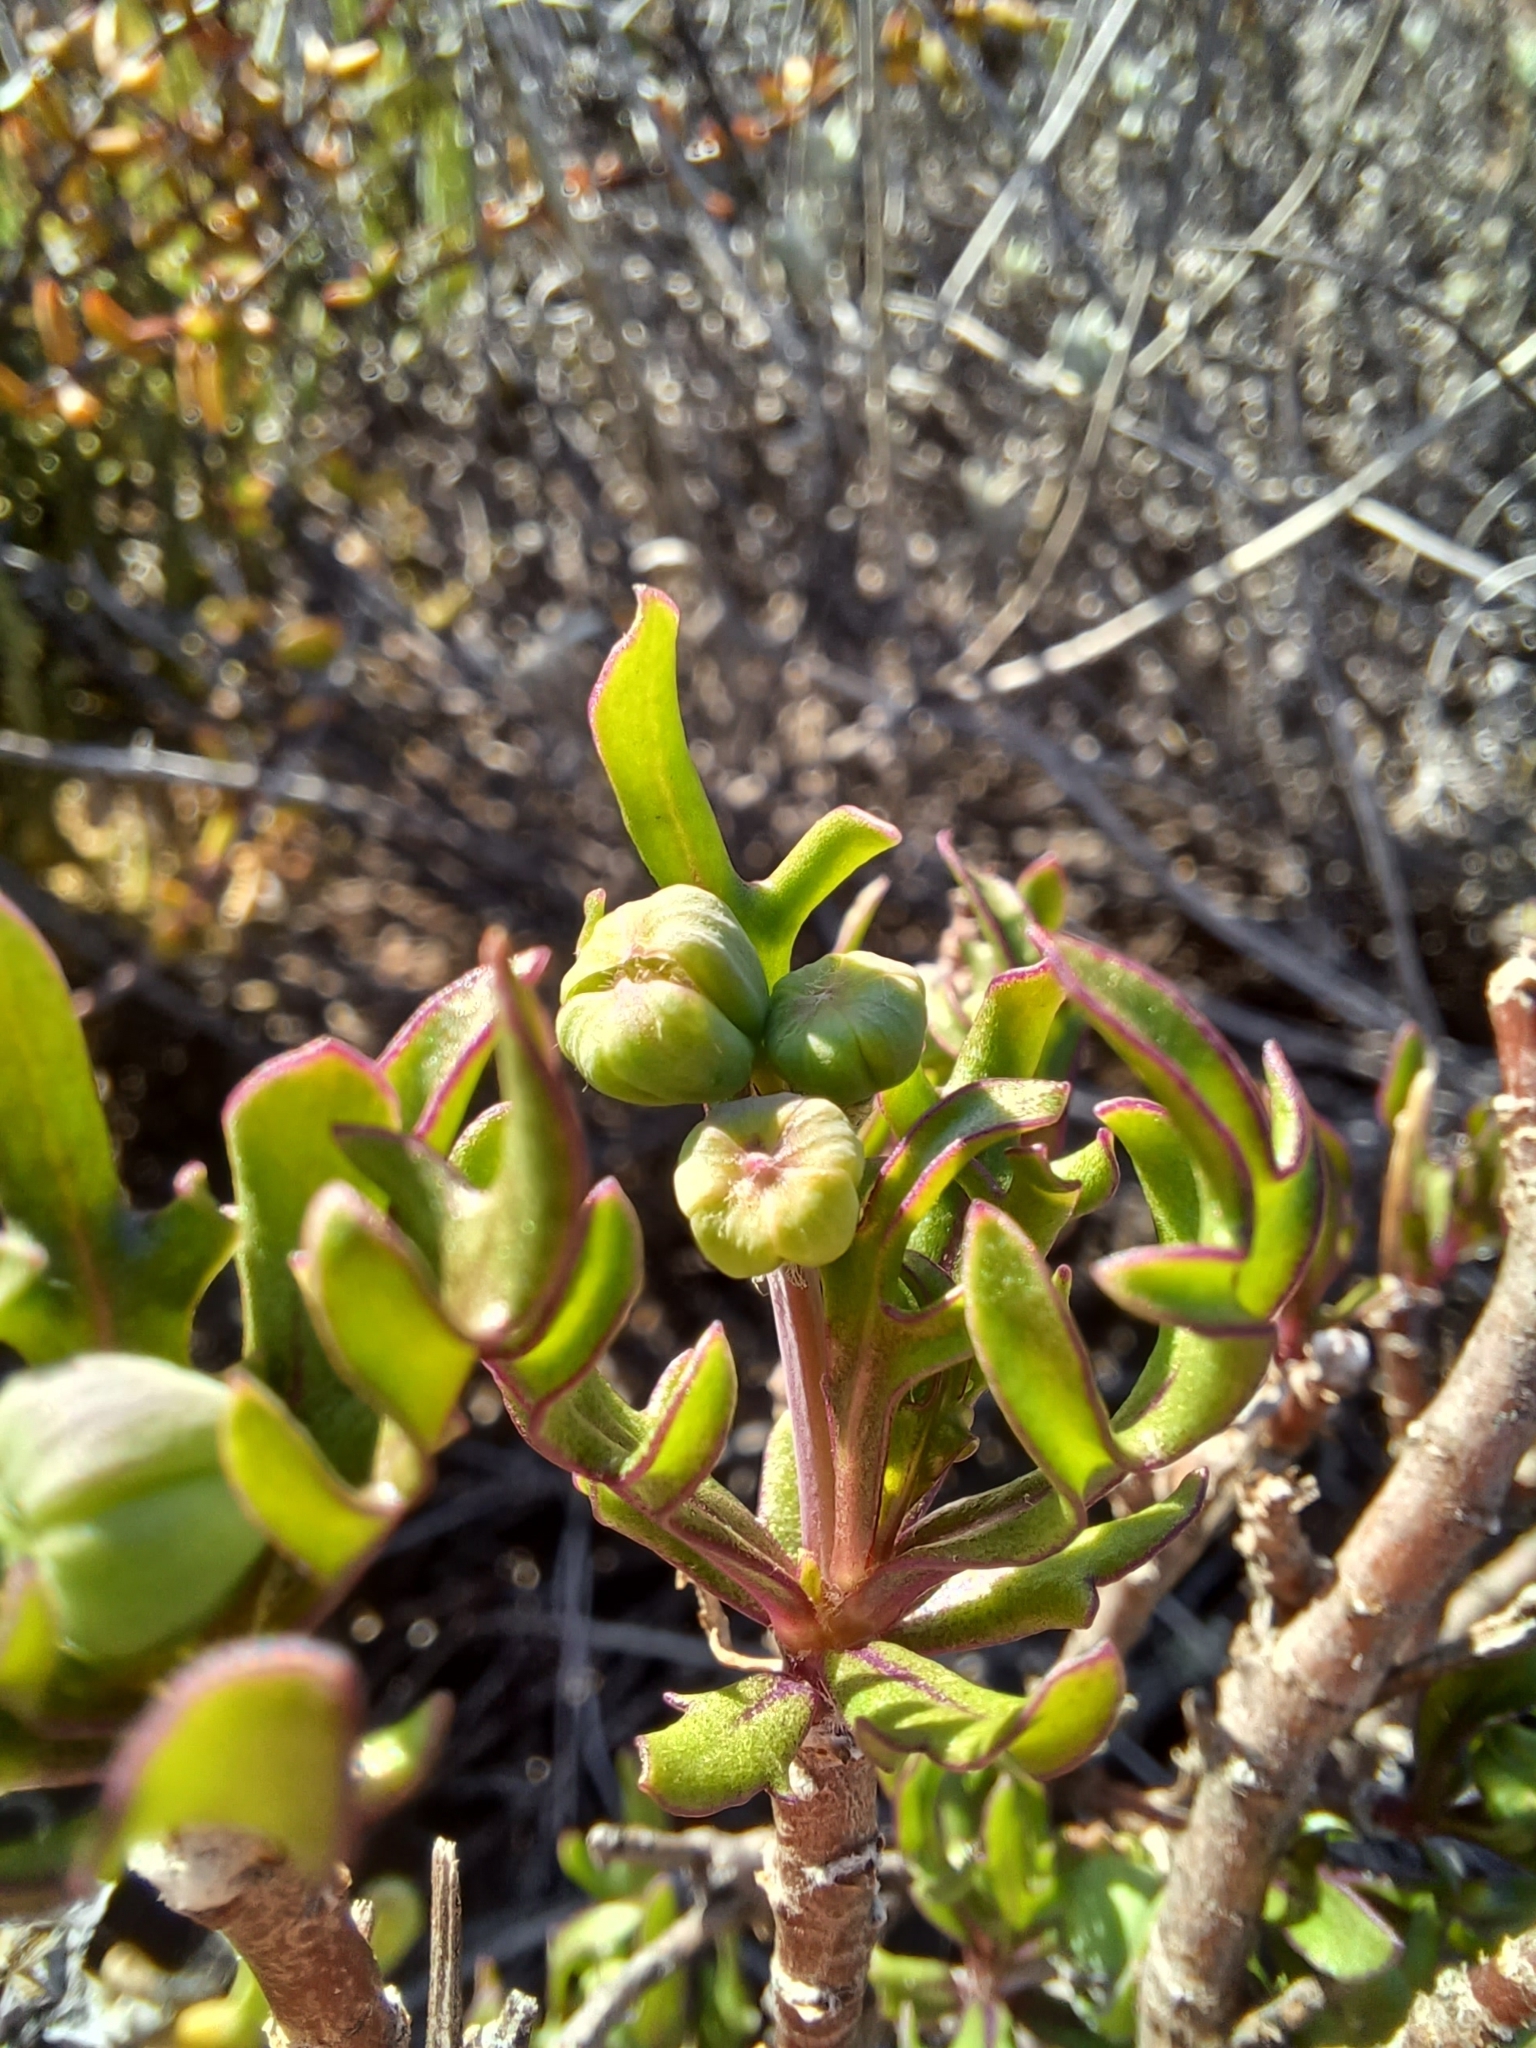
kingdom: Plantae
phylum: Tracheophyta
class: Magnoliopsida
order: Asterales
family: Asteraceae
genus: Othonna
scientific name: Othonna retrofracta
